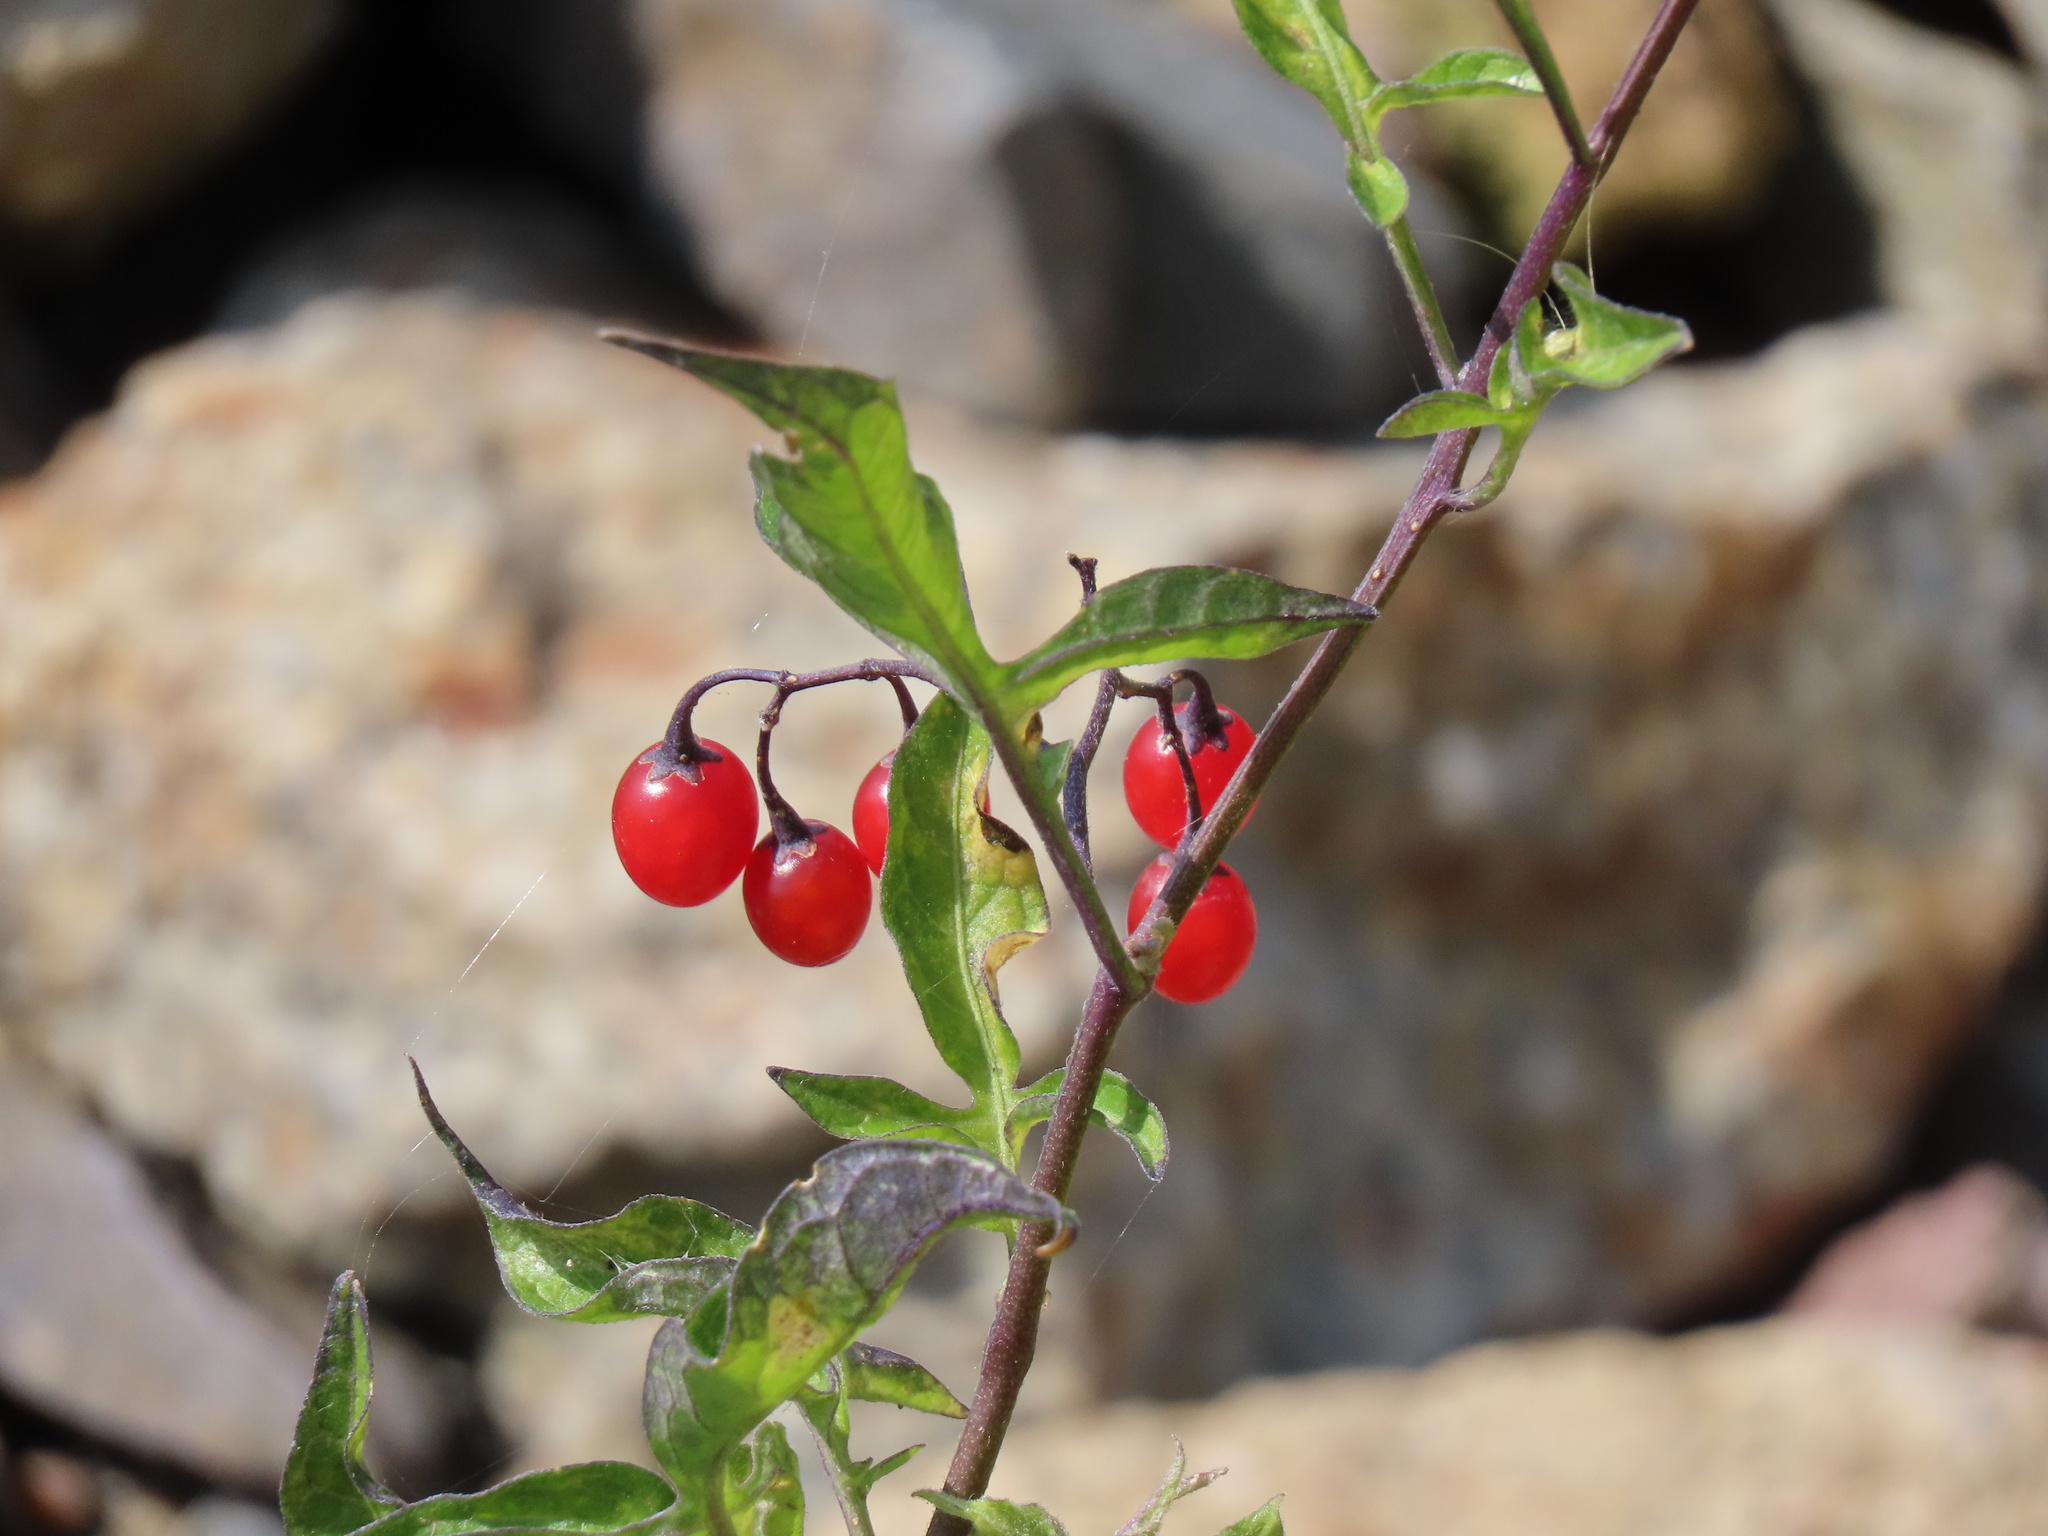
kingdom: Plantae
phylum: Tracheophyta
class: Magnoliopsida
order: Solanales
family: Solanaceae
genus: Solanum
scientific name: Solanum dulcamara
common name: Climbing nightshade
